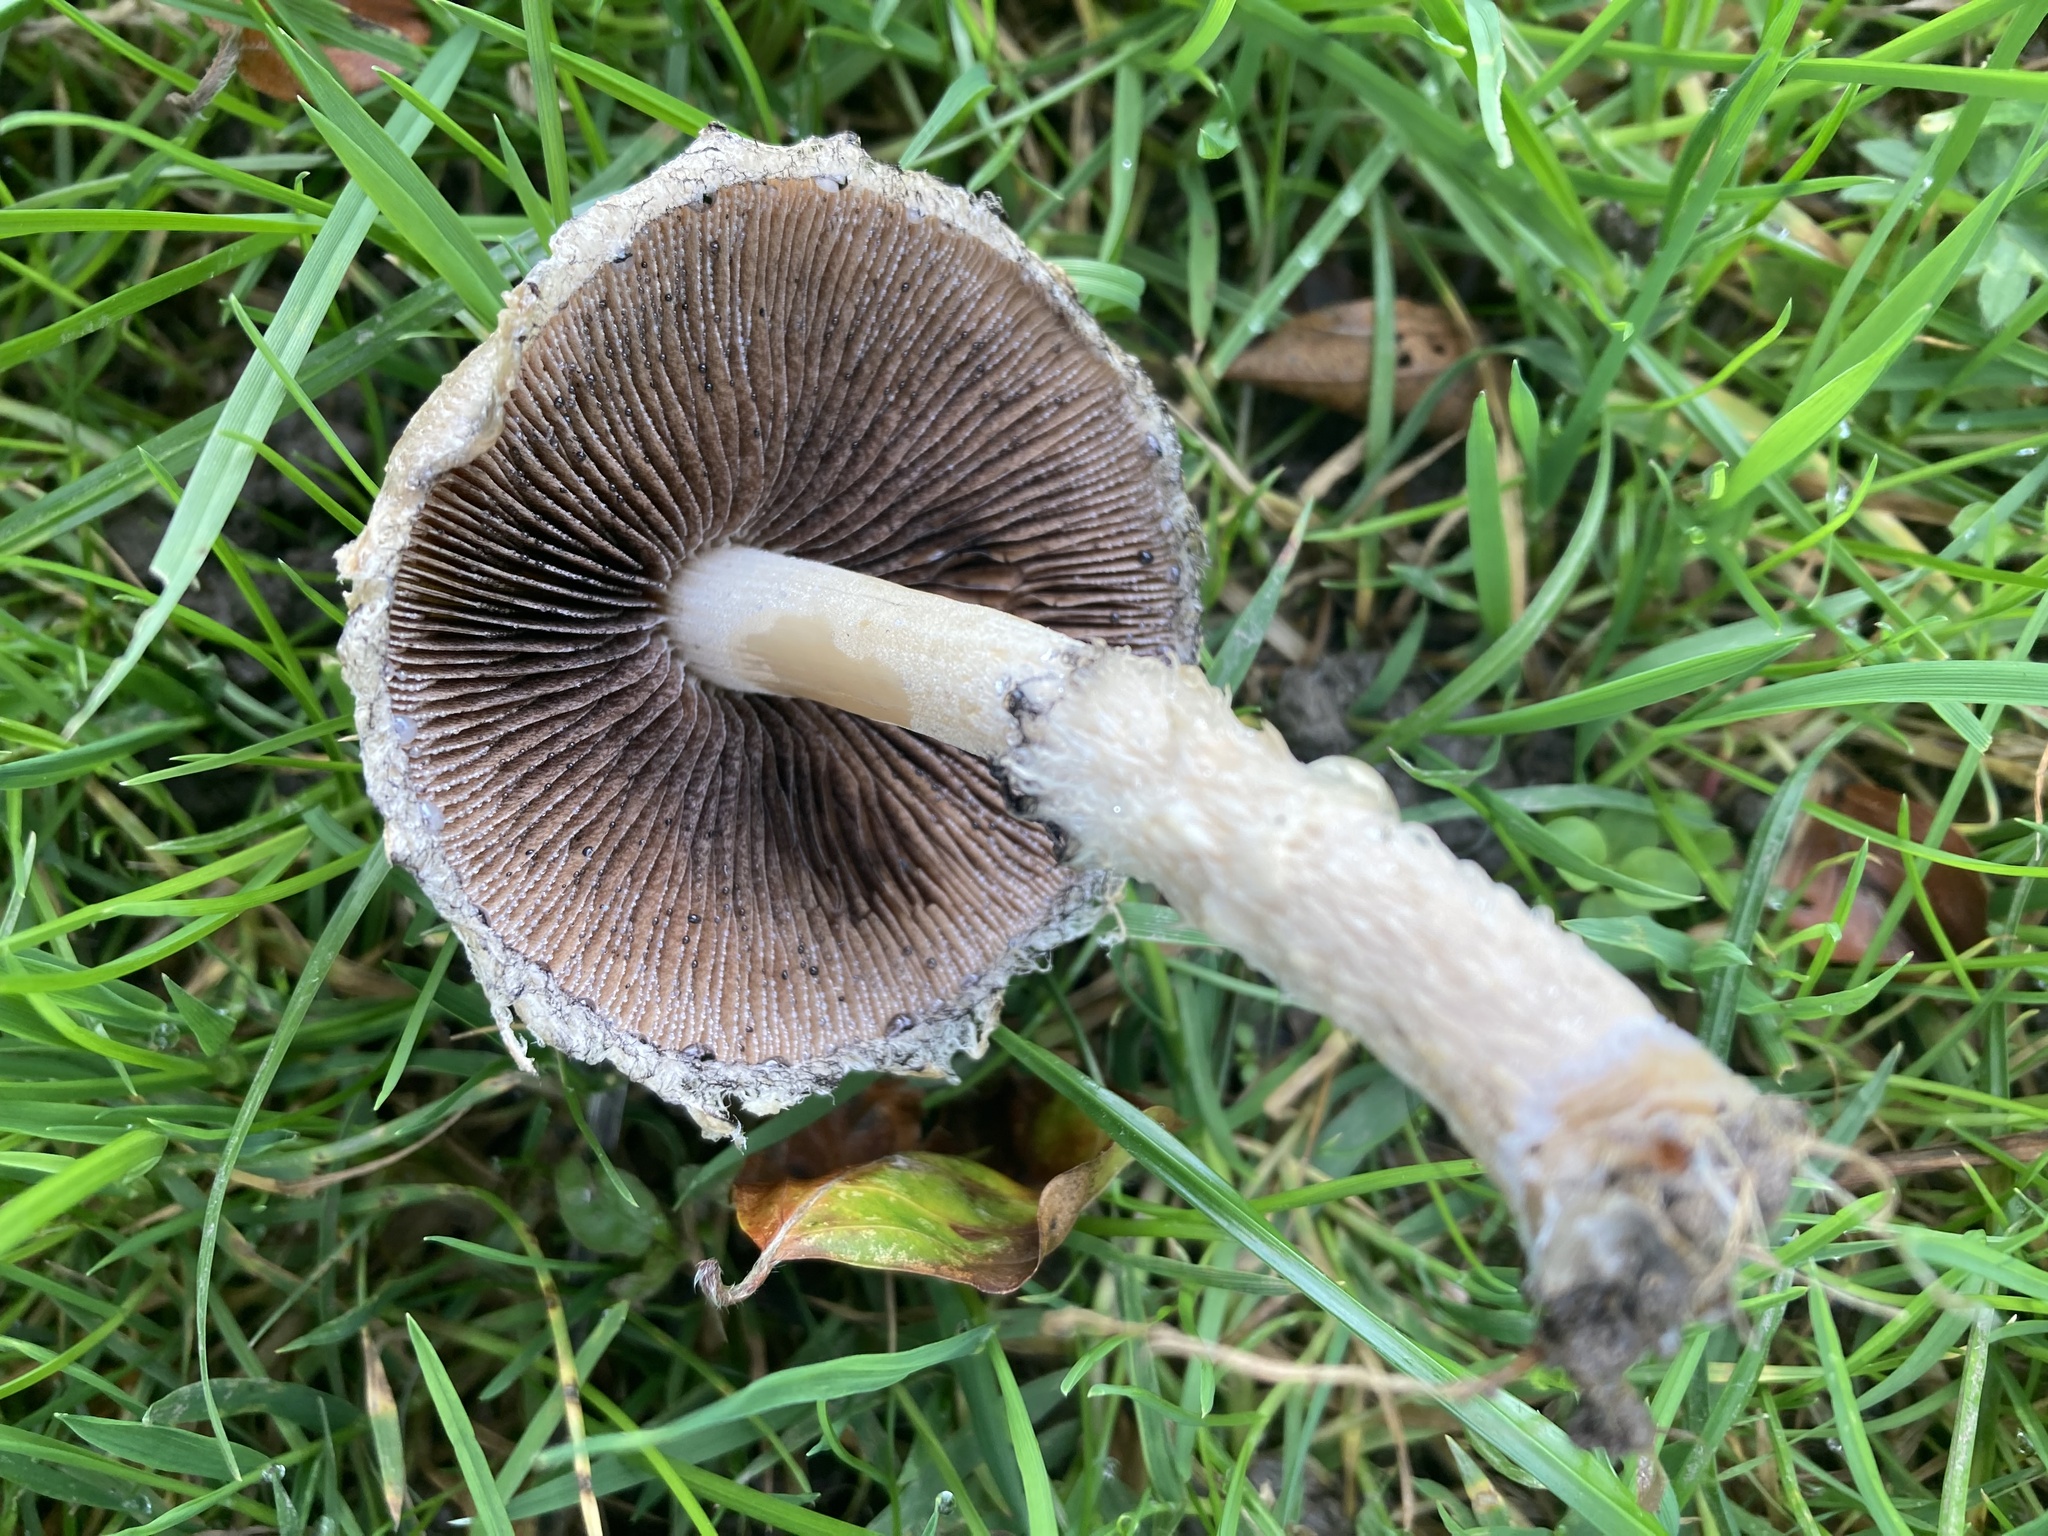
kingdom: Fungi
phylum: Basidiomycota
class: Agaricomycetes
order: Agaricales
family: Psathyrellaceae
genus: Lacrymaria
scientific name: Lacrymaria lacrymabunda
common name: Weeping widow
